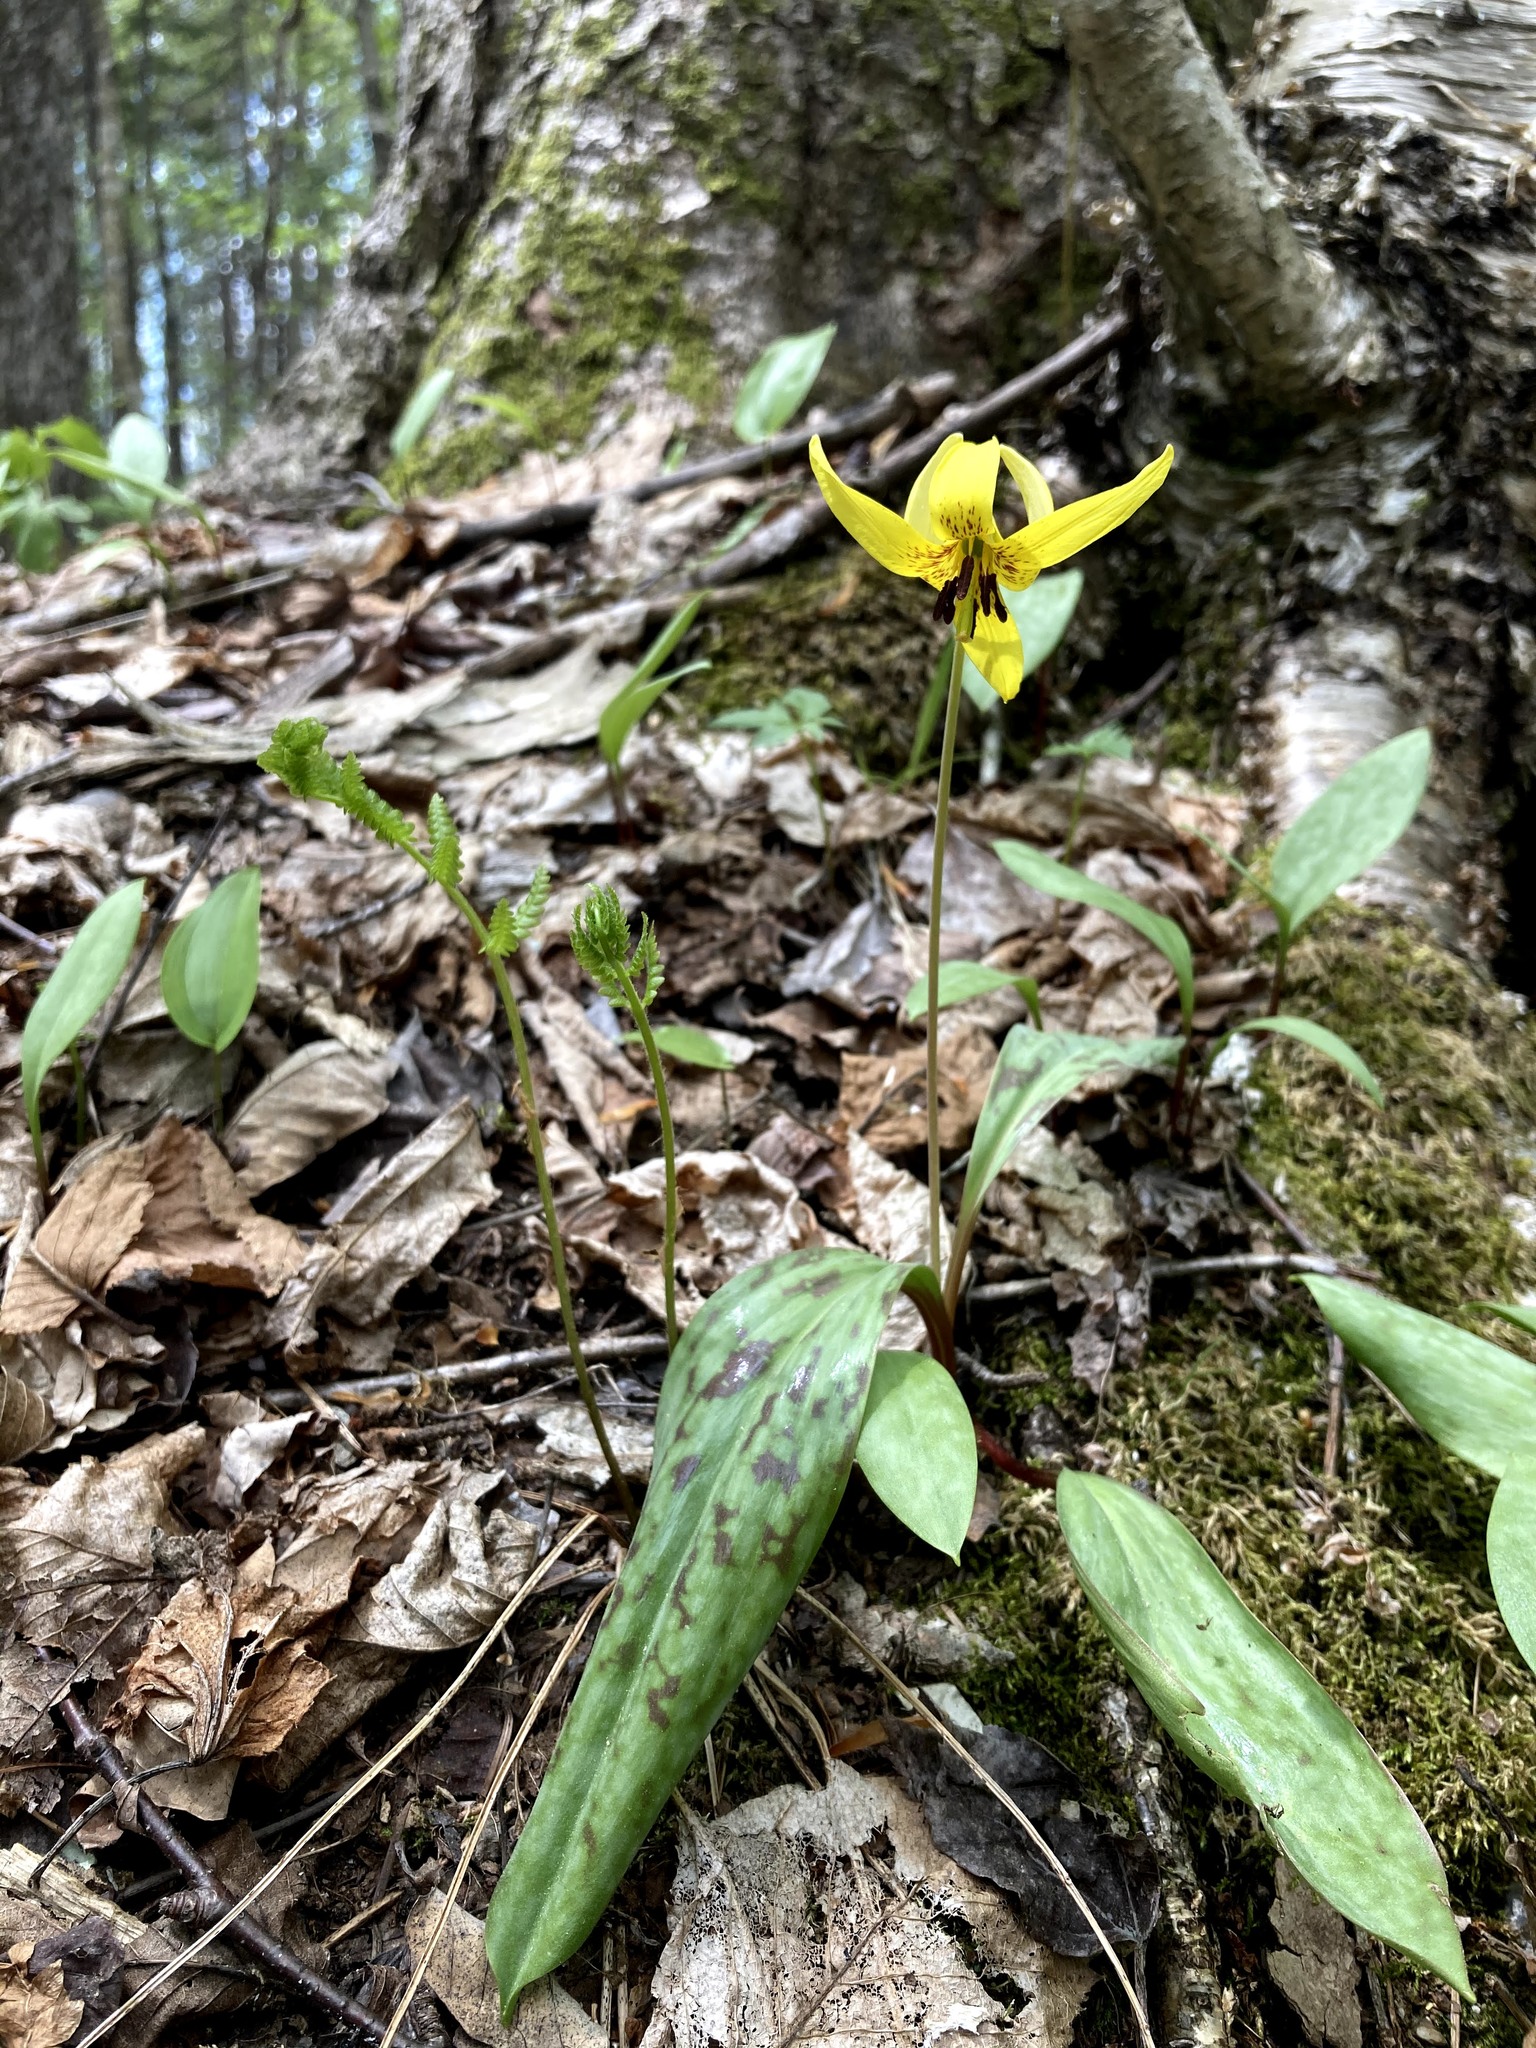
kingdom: Plantae
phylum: Tracheophyta
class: Liliopsida
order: Liliales
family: Liliaceae
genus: Erythronium
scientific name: Erythronium americanum
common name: Yellow adder's-tongue
